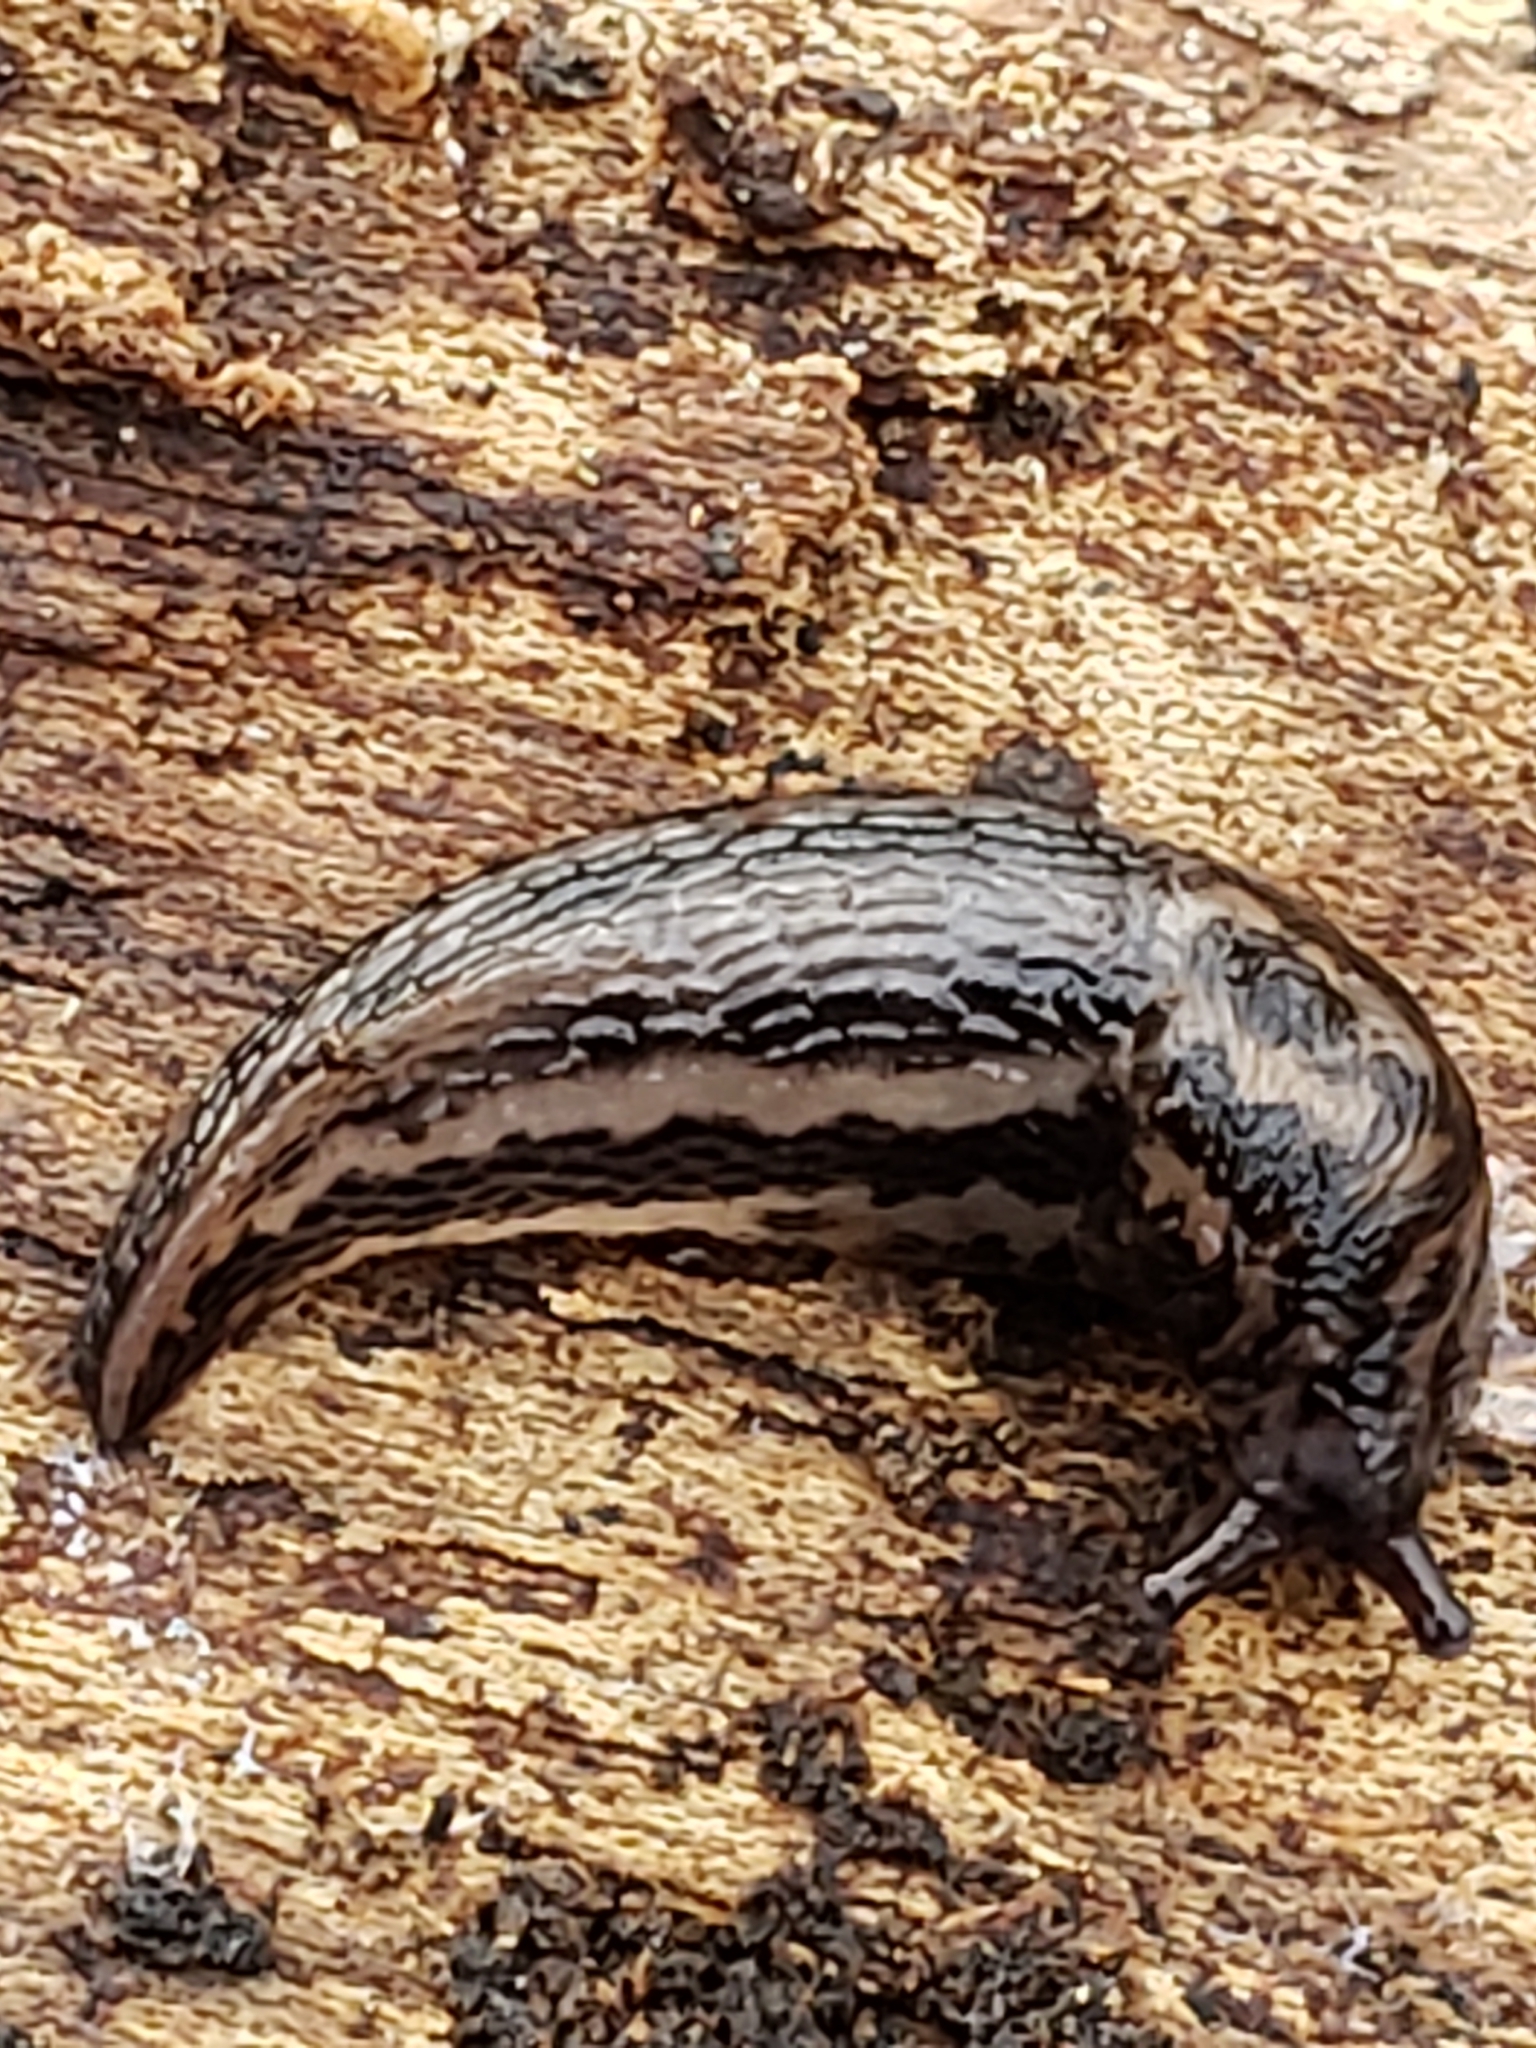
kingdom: Animalia
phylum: Mollusca
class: Gastropoda
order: Stylommatophora
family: Limacidae
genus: Limax
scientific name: Limax maximus
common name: Great grey slug
